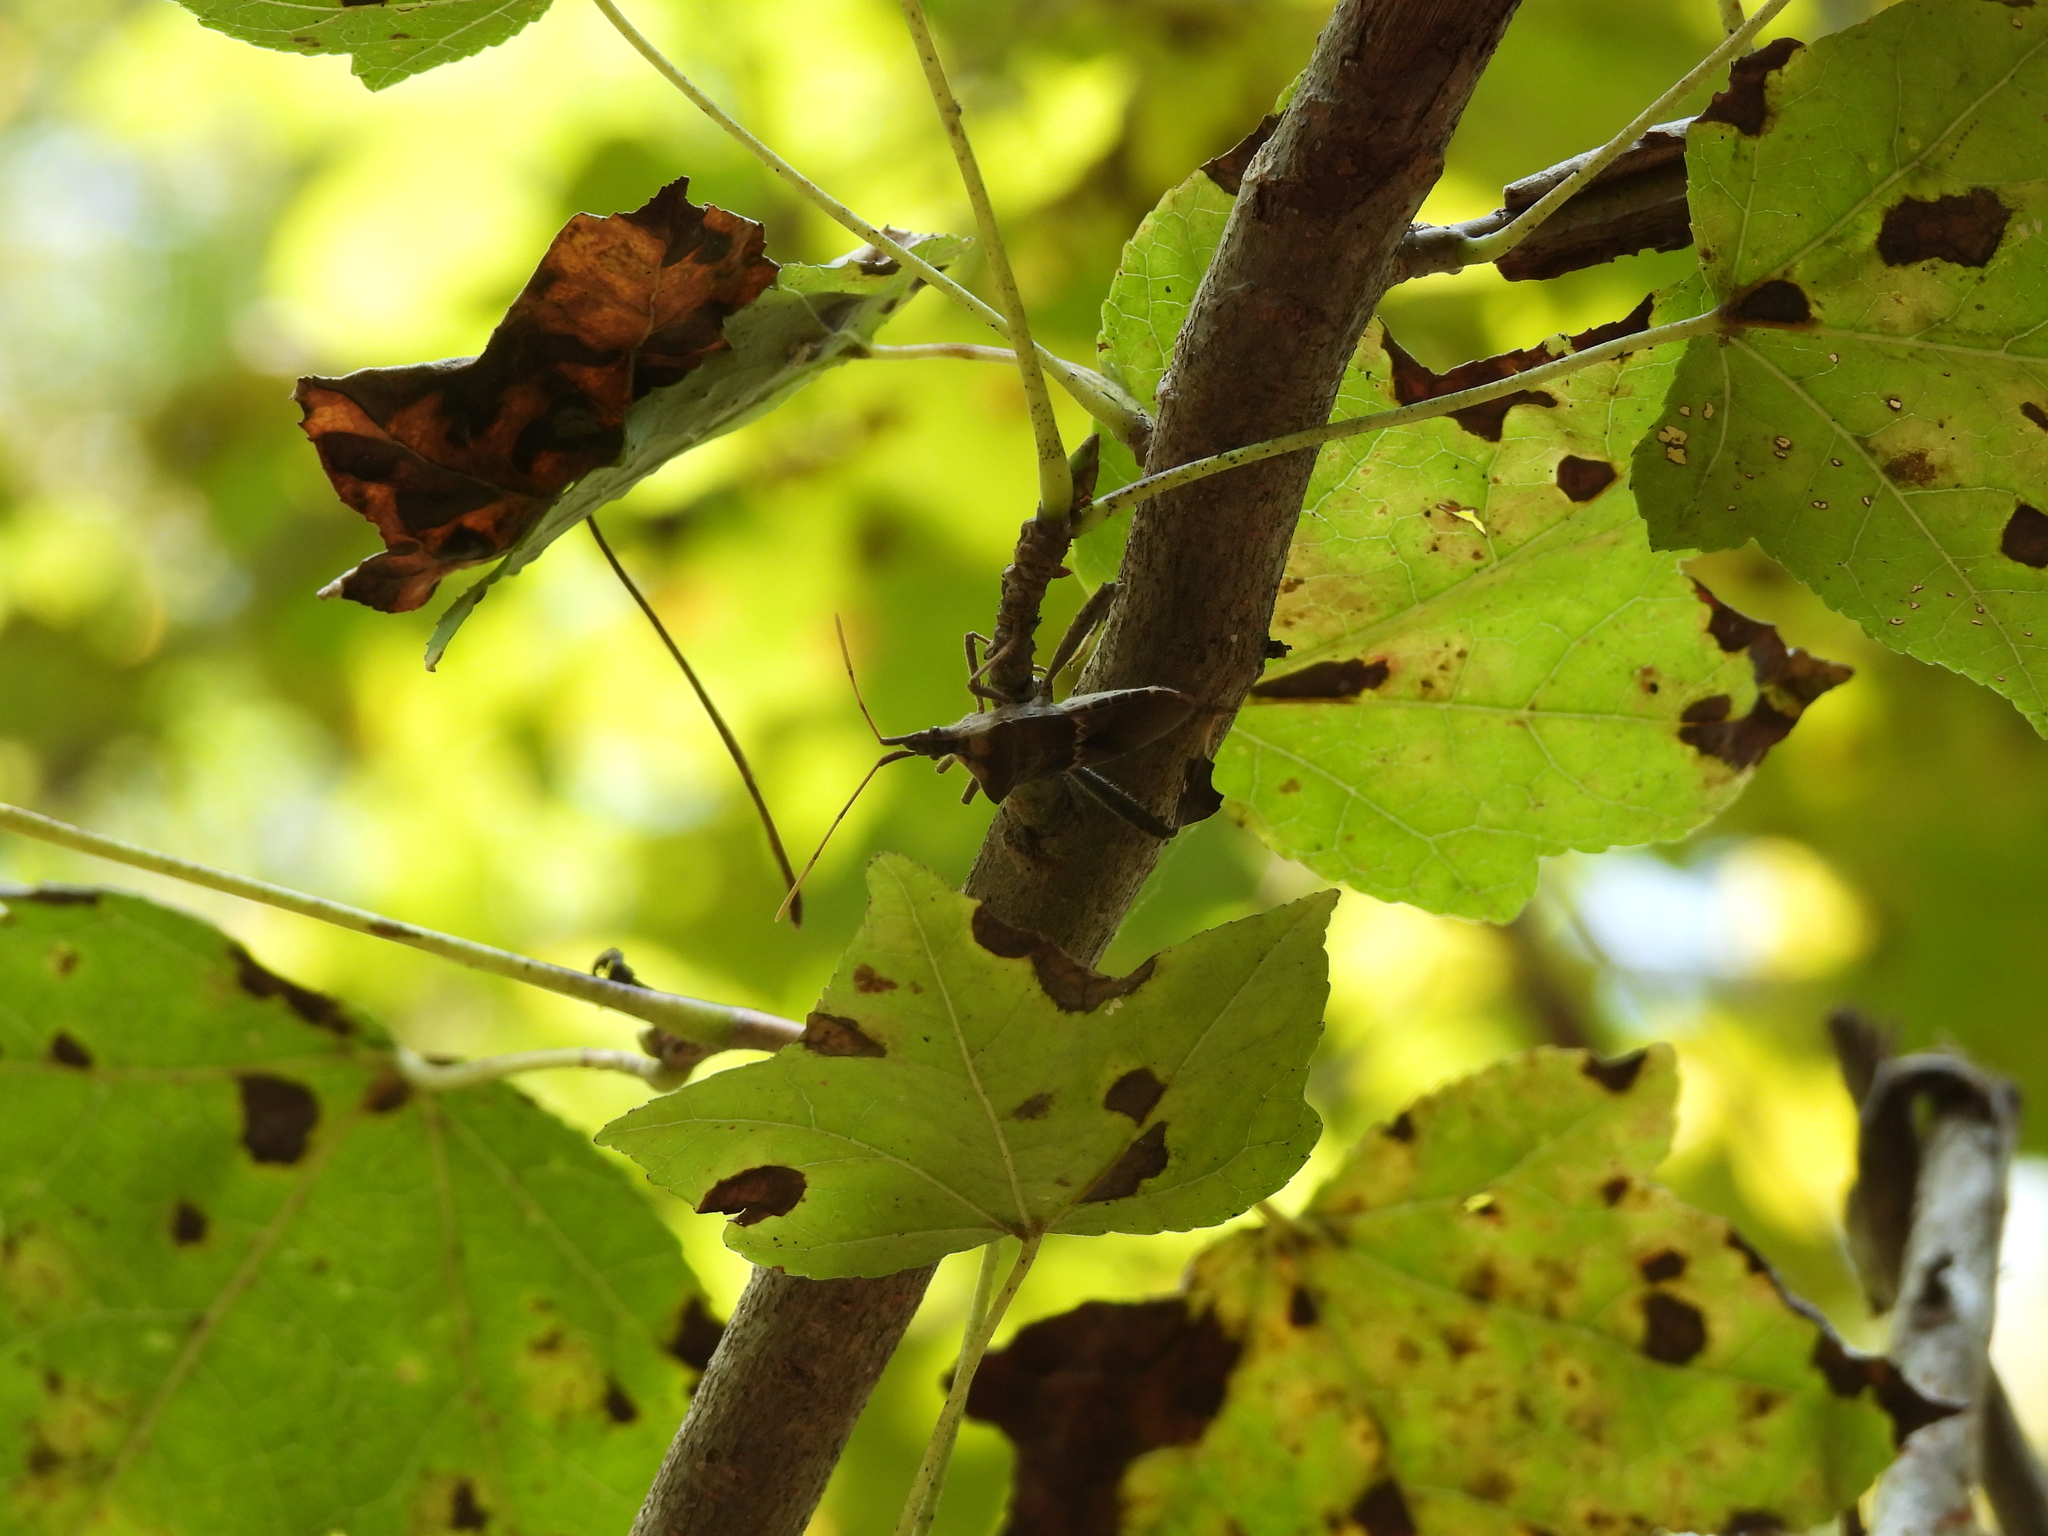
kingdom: Animalia
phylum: Arthropoda
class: Insecta
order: Hemiptera
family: Coreidae
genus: Leptoglossus
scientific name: Leptoglossus zonatus
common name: Large-legged bug
